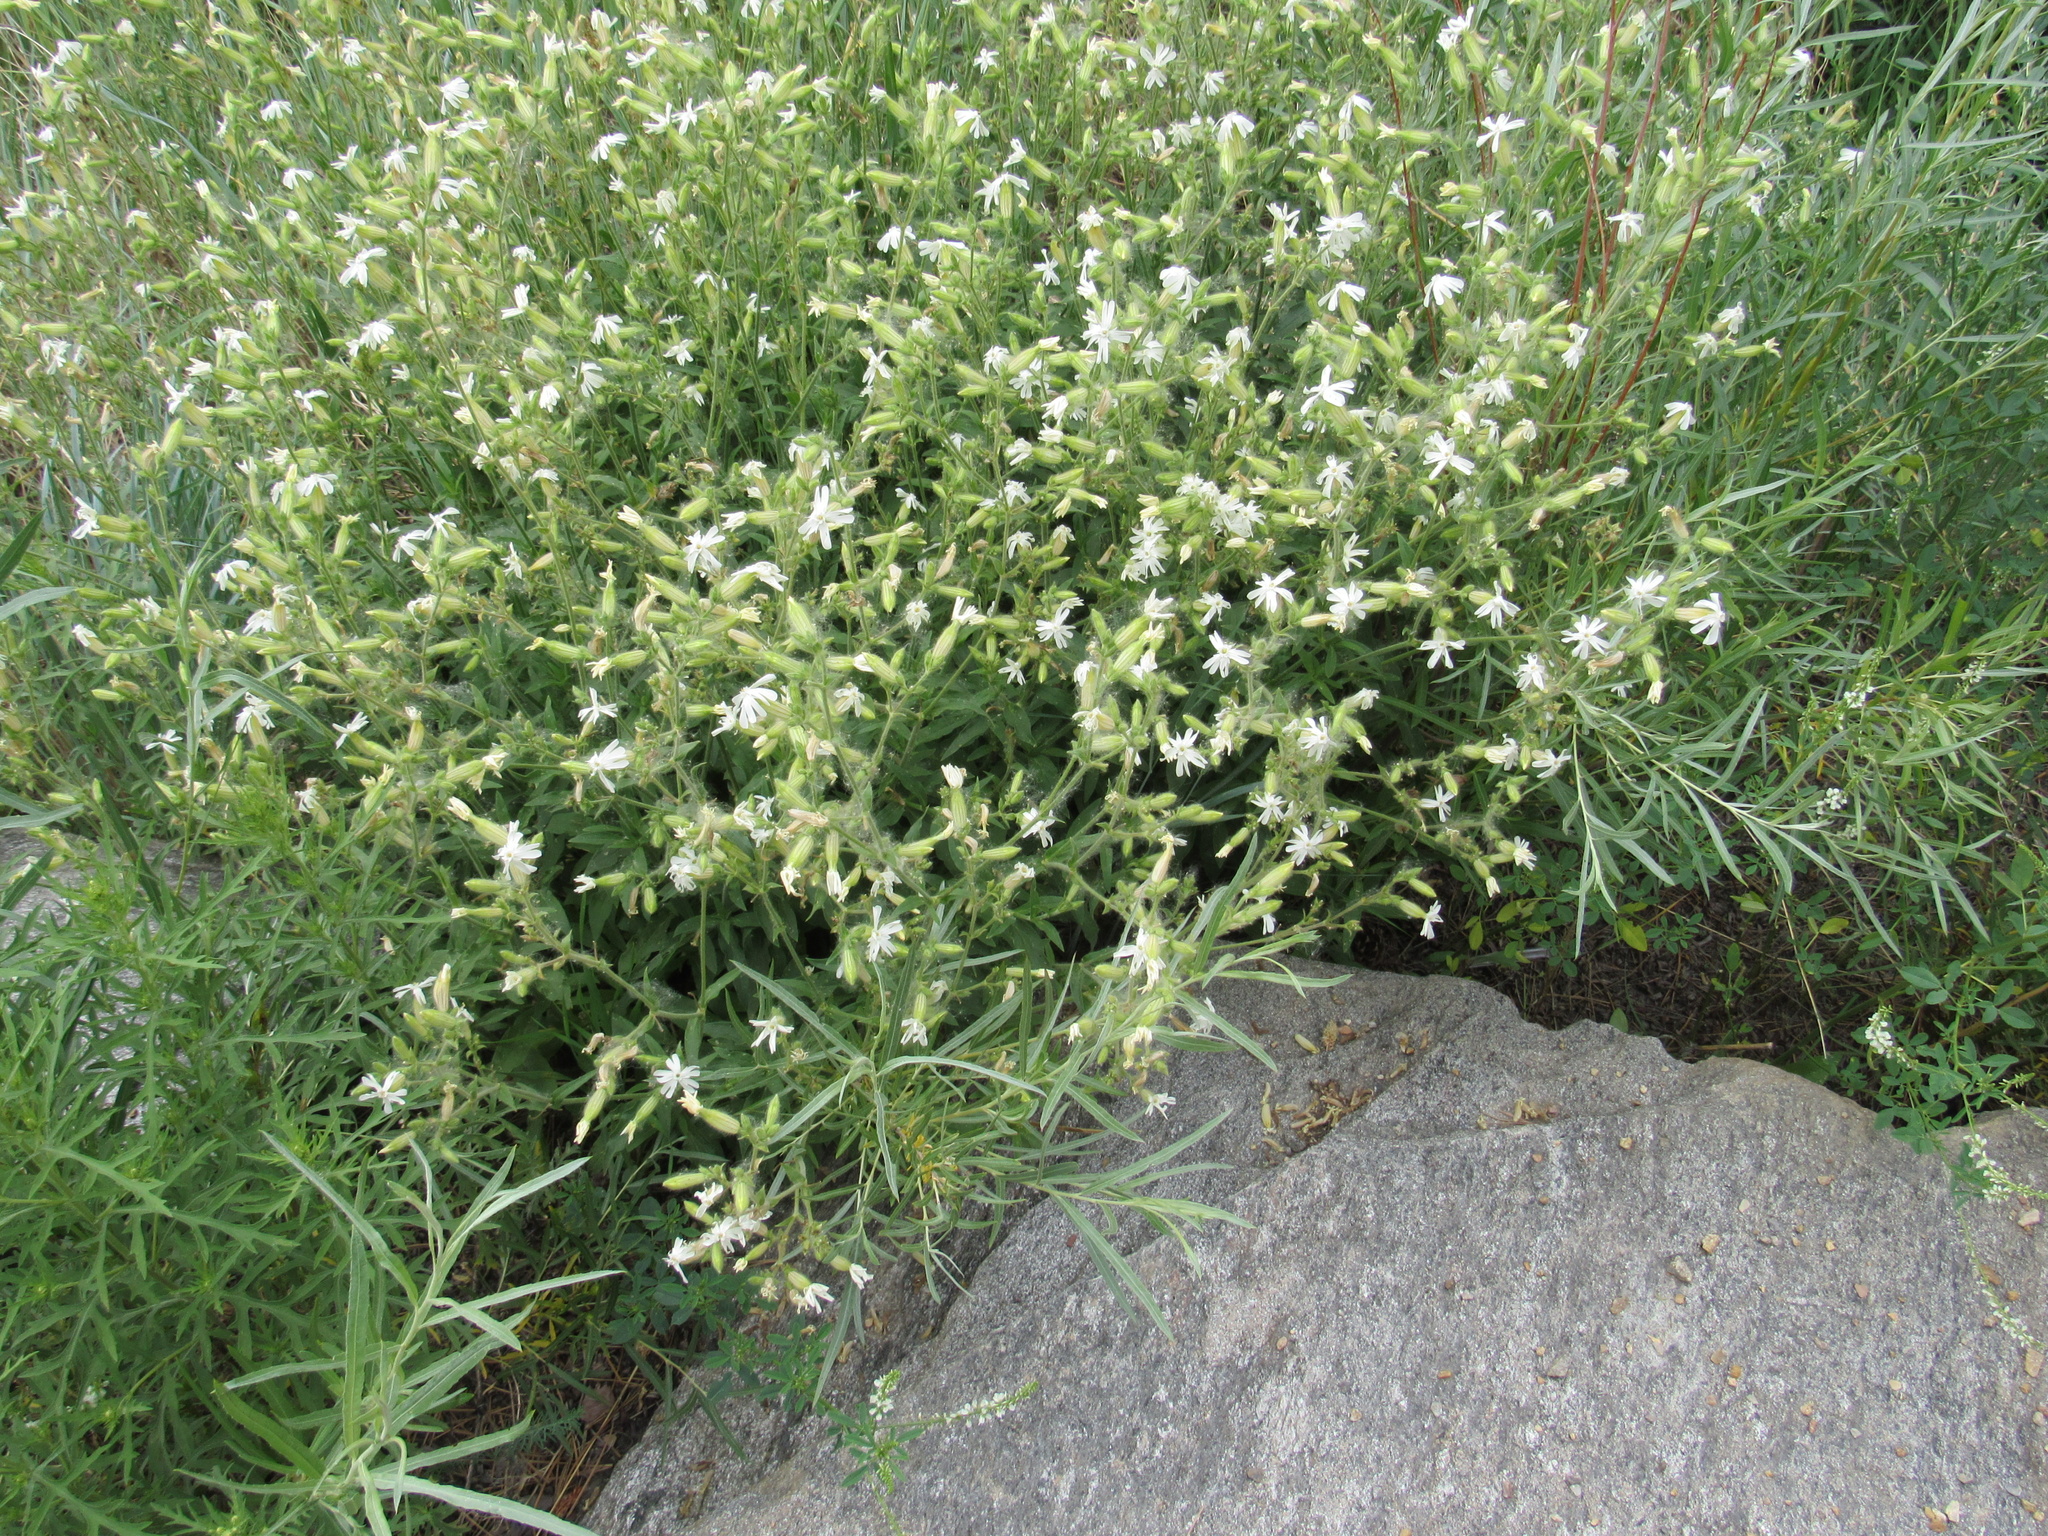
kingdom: Plantae
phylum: Tracheophyta
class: Magnoliopsida
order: Caryophyllales
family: Caryophyllaceae
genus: Silene
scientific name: Silene latifolia
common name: White campion
